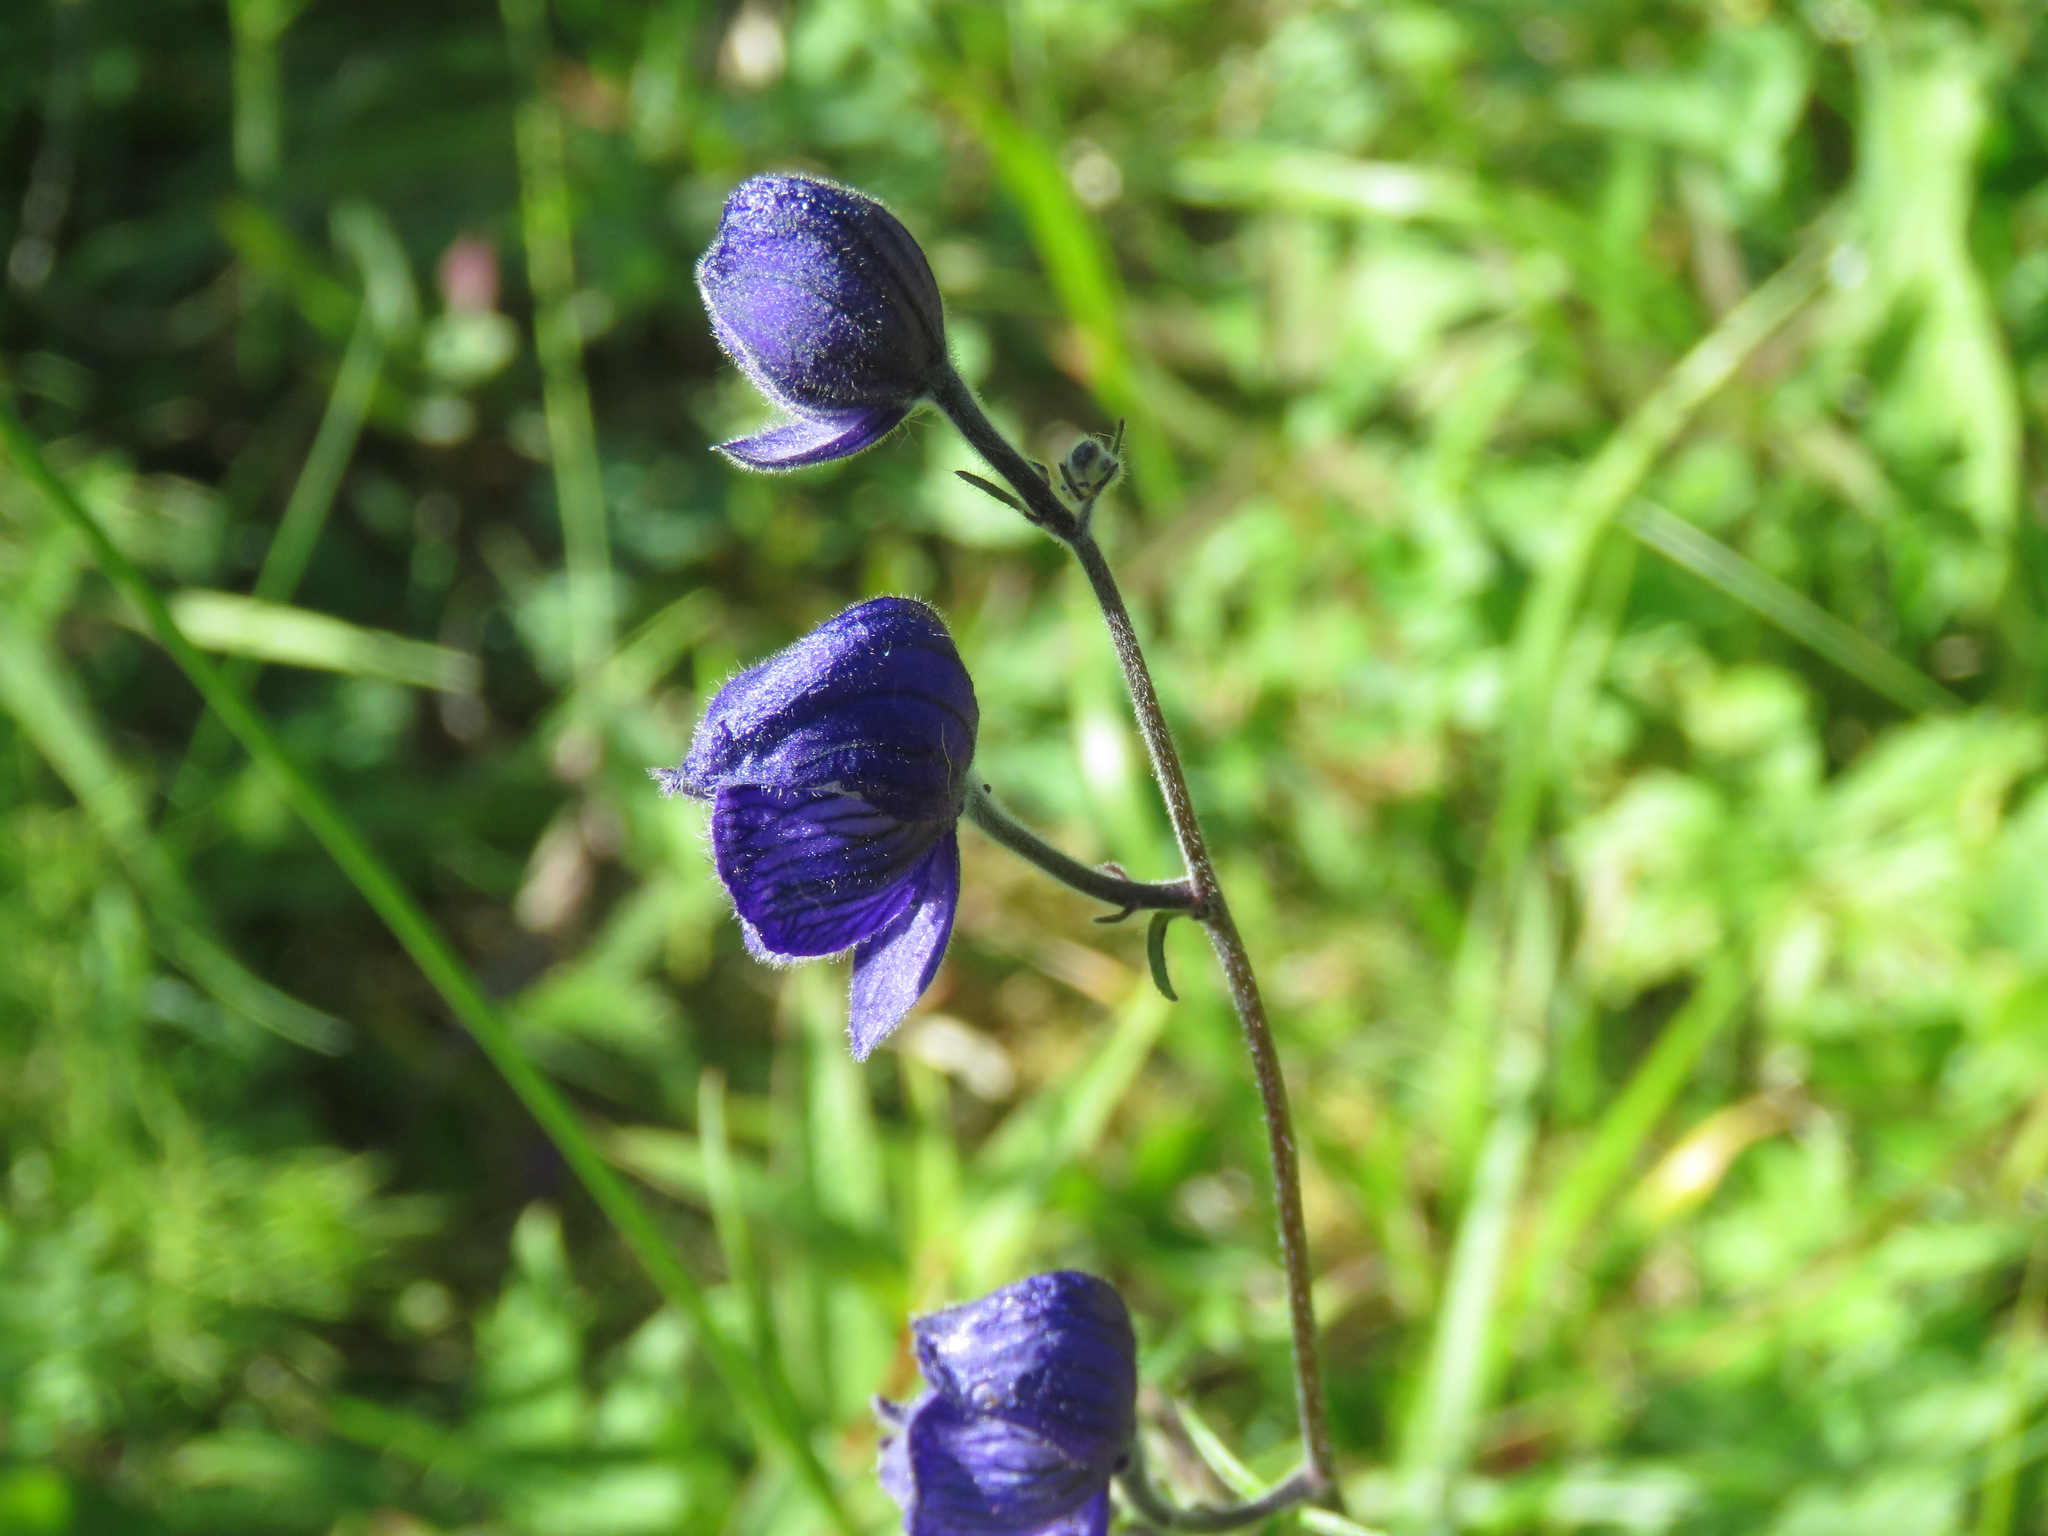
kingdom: Plantae
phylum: Tracheophyta
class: Magnoliopsida
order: Ranunculales
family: Ranunculaceae
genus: Aconitum
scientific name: Aconitum delphiniifolium
